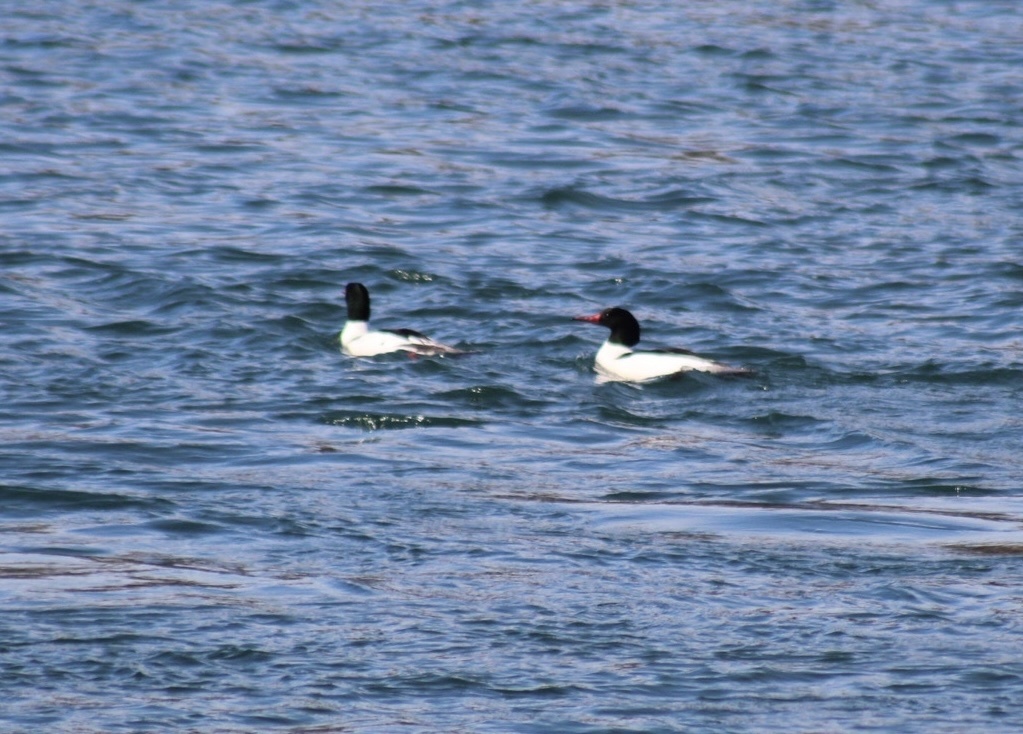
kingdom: Animalia
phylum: Chordata
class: Aves
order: Anseriformes
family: Anatidae
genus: Mergus
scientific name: Mergus merganser
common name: Common merganser
